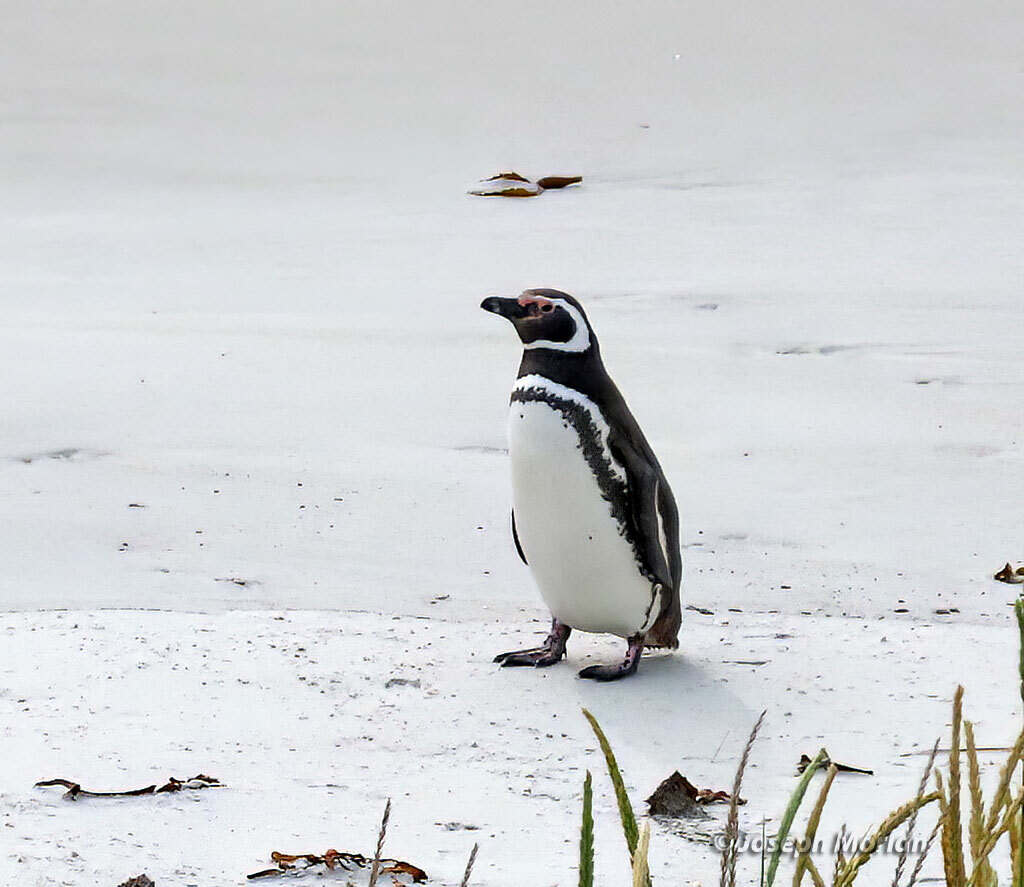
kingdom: Animalia
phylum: Chordata
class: Aves
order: Sphenisciformes
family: Spheniscidae
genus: Spheniscus
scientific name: Spheniscus magellanicus
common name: Magellanic penguin
